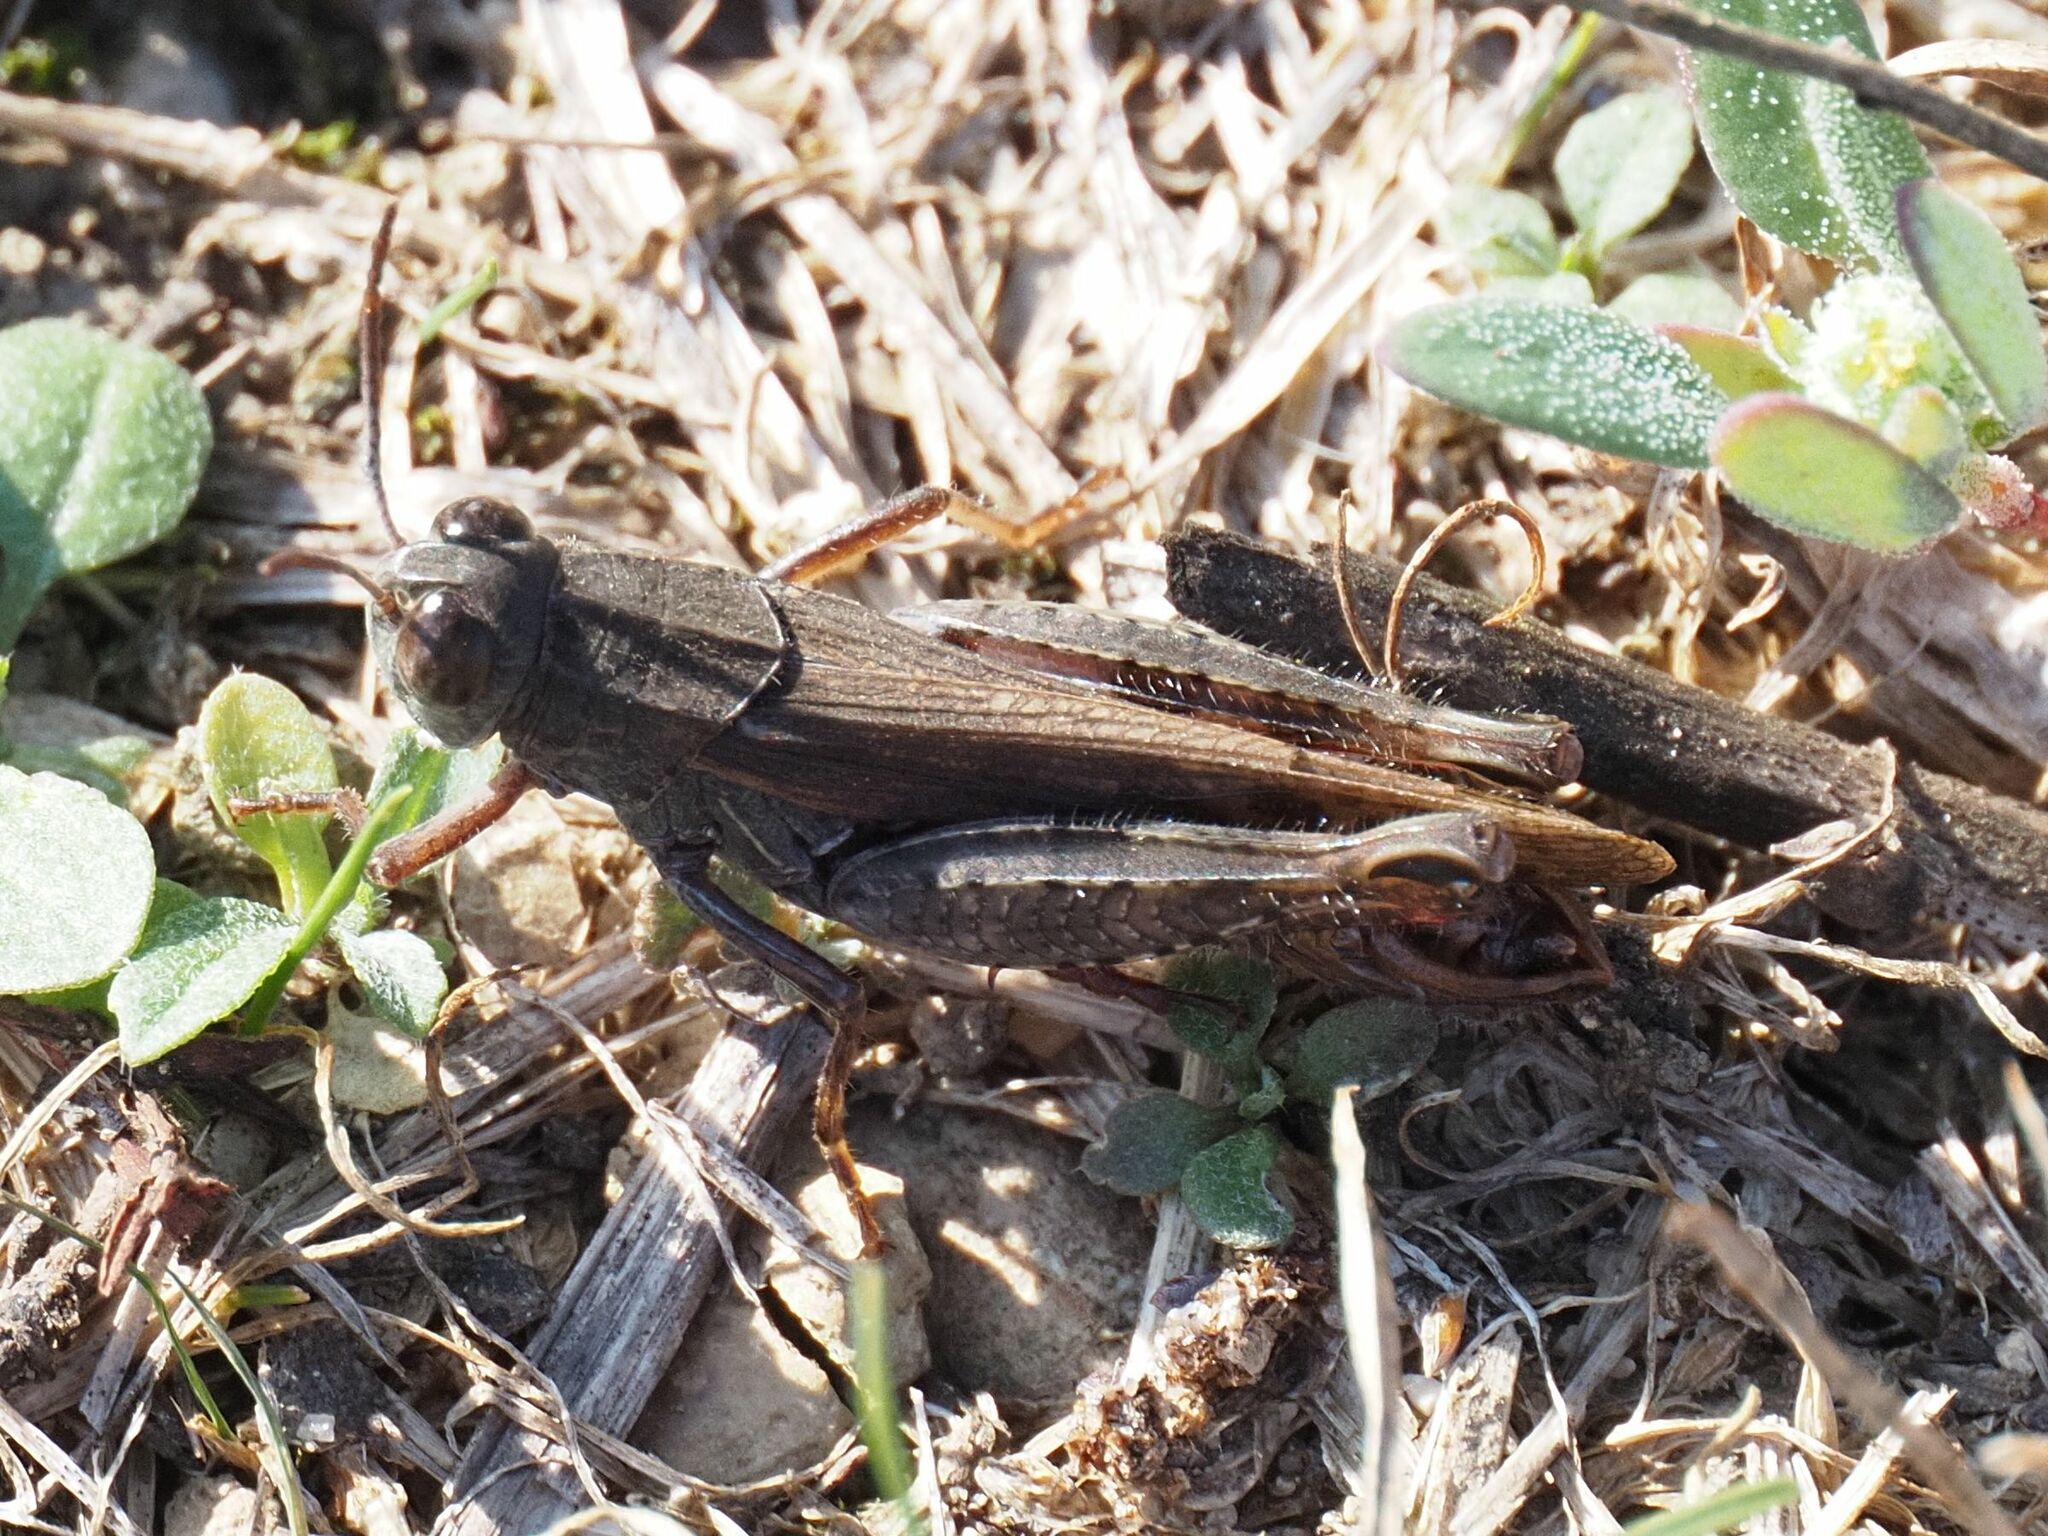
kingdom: Animalia
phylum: Arthropoda
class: Insecta
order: Orthoptera
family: Acrididae
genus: Calliptamus
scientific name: Calliptamus italicus
